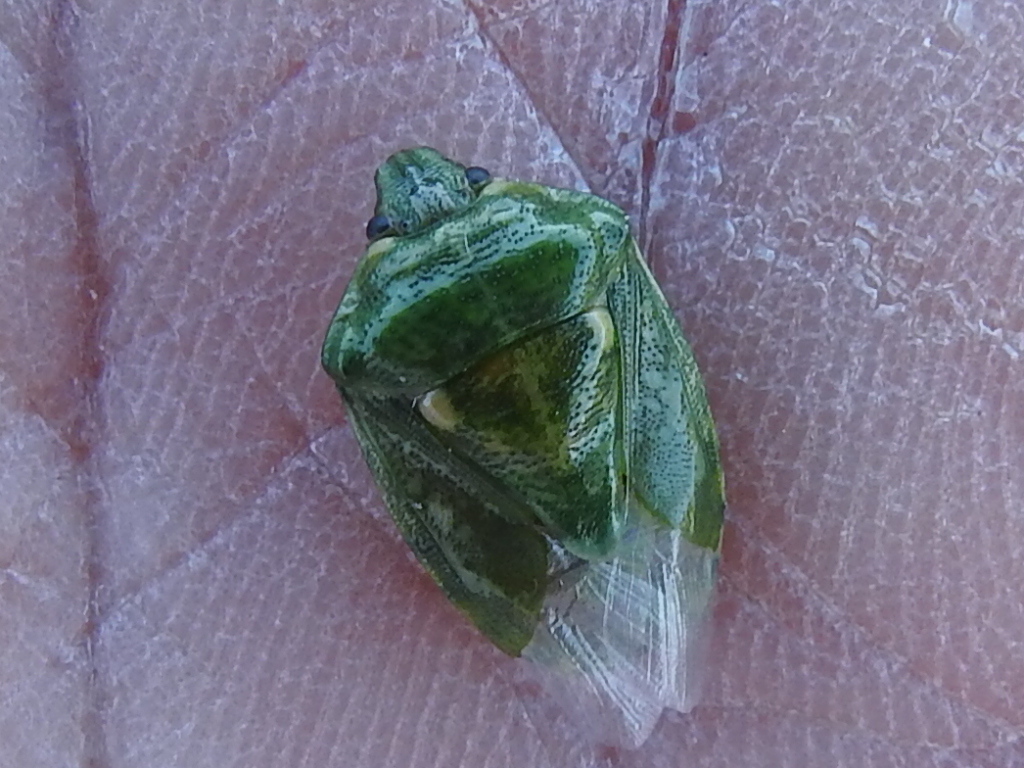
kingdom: Animalia
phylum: Arthropoda
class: Insecta
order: Hemiptera
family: Pentatomidae
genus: Banasa
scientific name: Banasa euchlora
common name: Cedar berry bug
